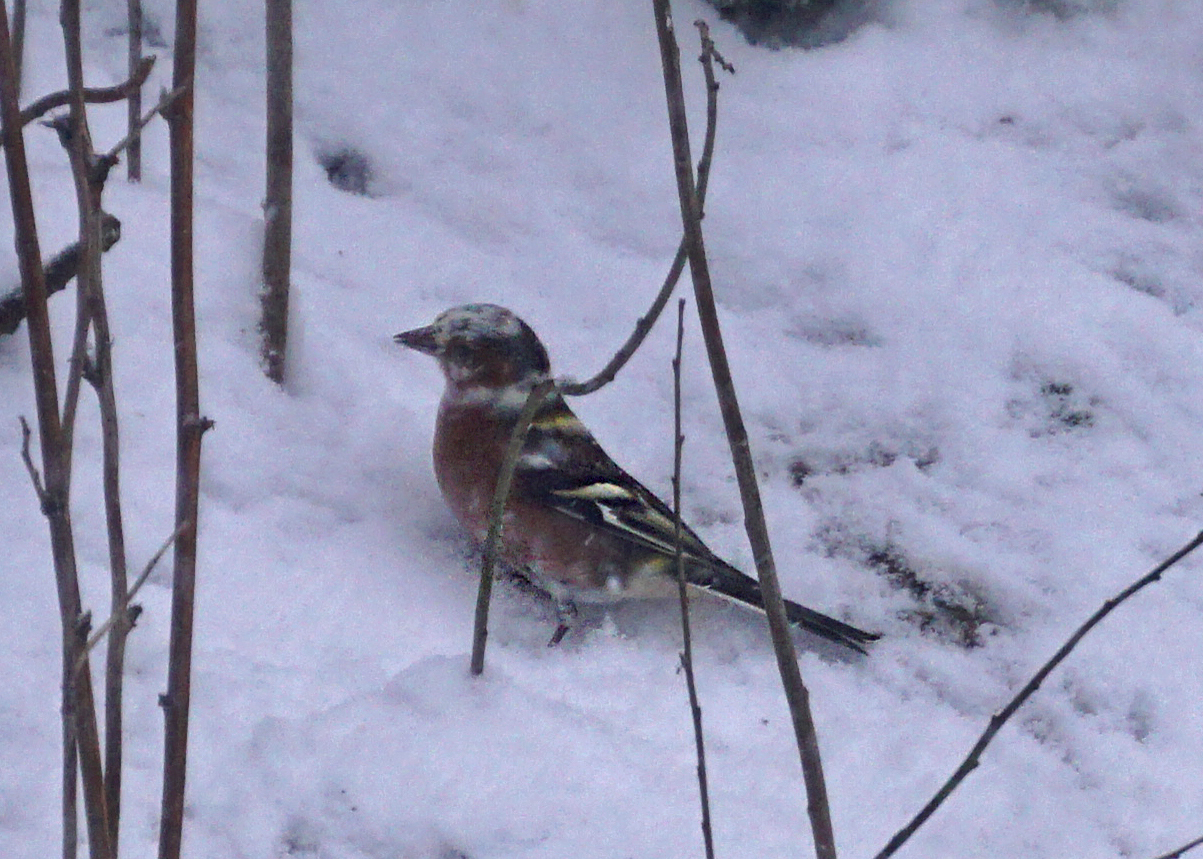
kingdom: Animalia
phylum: Chordata
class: Aves
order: Passeriformes
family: Fringillidae
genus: Fringilla
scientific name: Fringilla coelebs
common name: Common chaffinch
